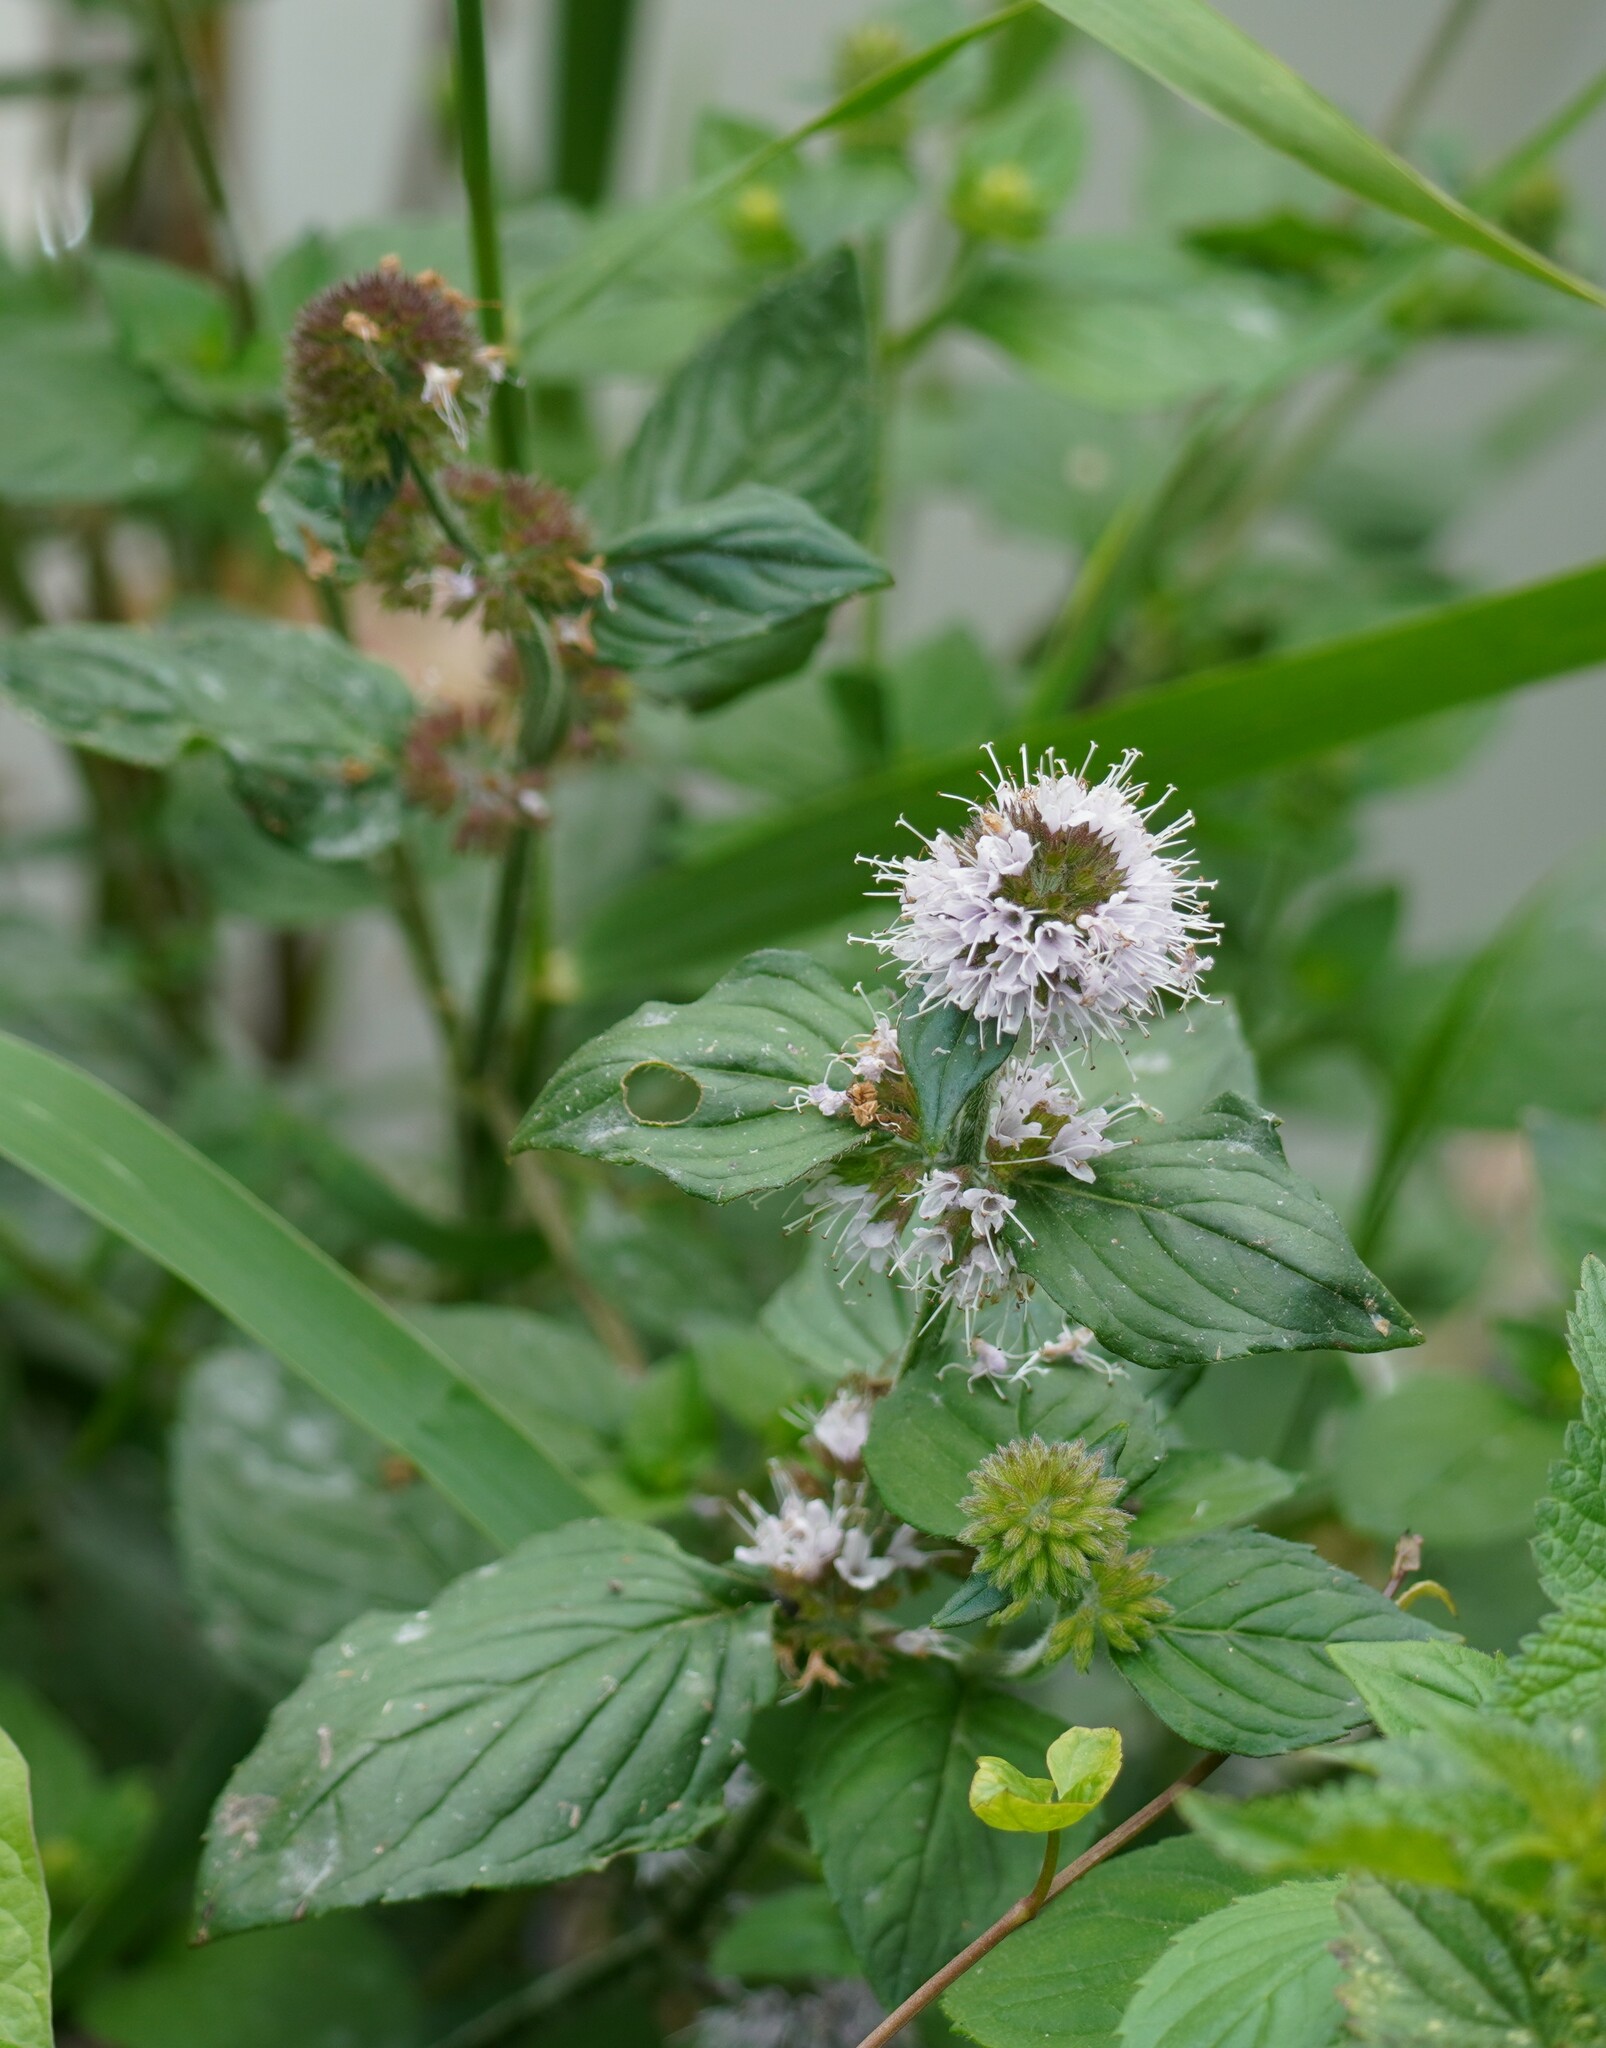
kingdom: Plantae
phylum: Tracheophyta
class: Magnoliopsida
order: Lamiales
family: Lamiaceae
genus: Mentha
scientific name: Mentha aquatica
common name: Water mint
